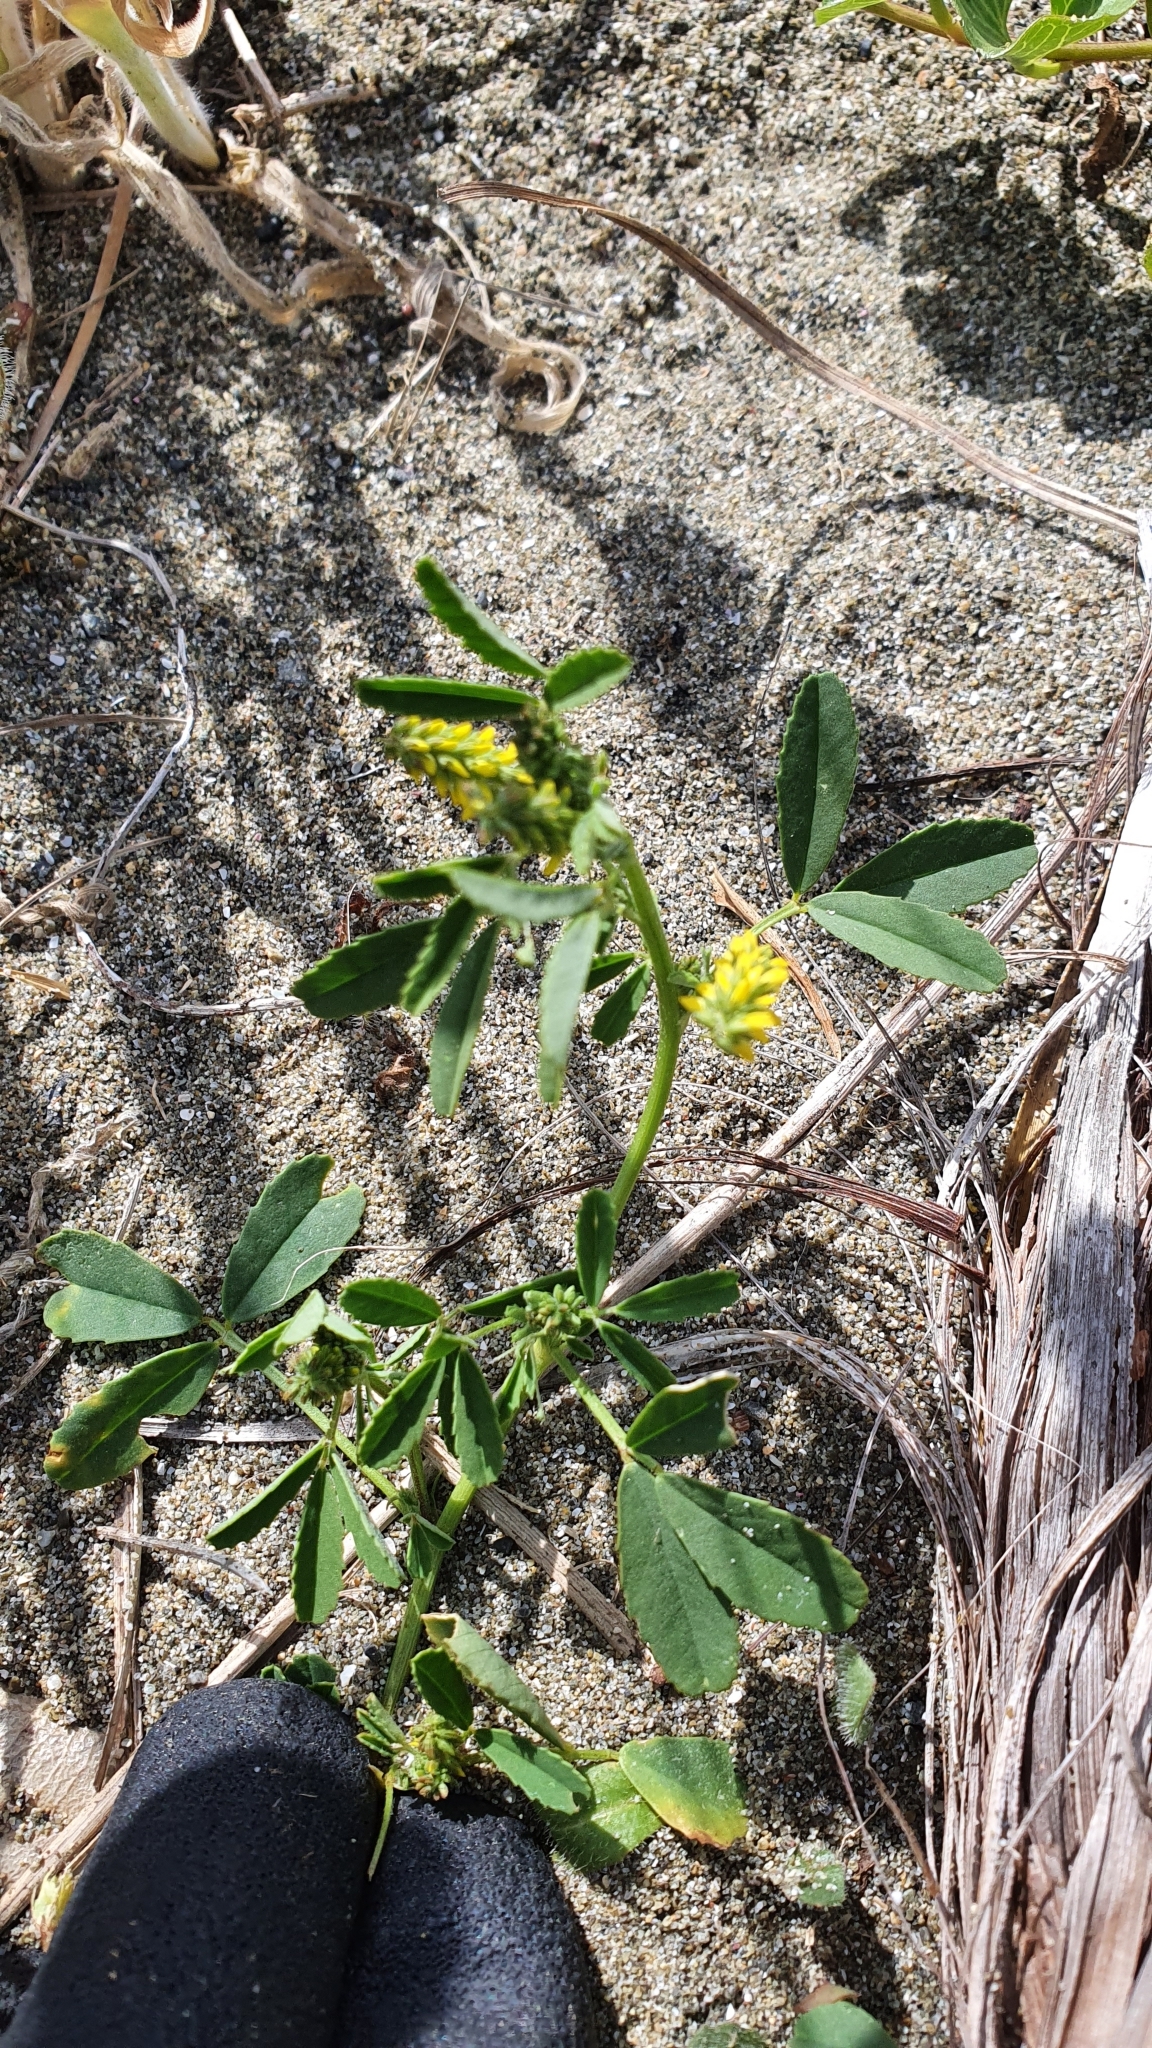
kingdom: Plantae
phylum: Tracheophyta
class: Magnoliopsida
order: Fabales
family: Fabaceae
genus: Melilotus
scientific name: Melilotus indicus
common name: Small melilot
